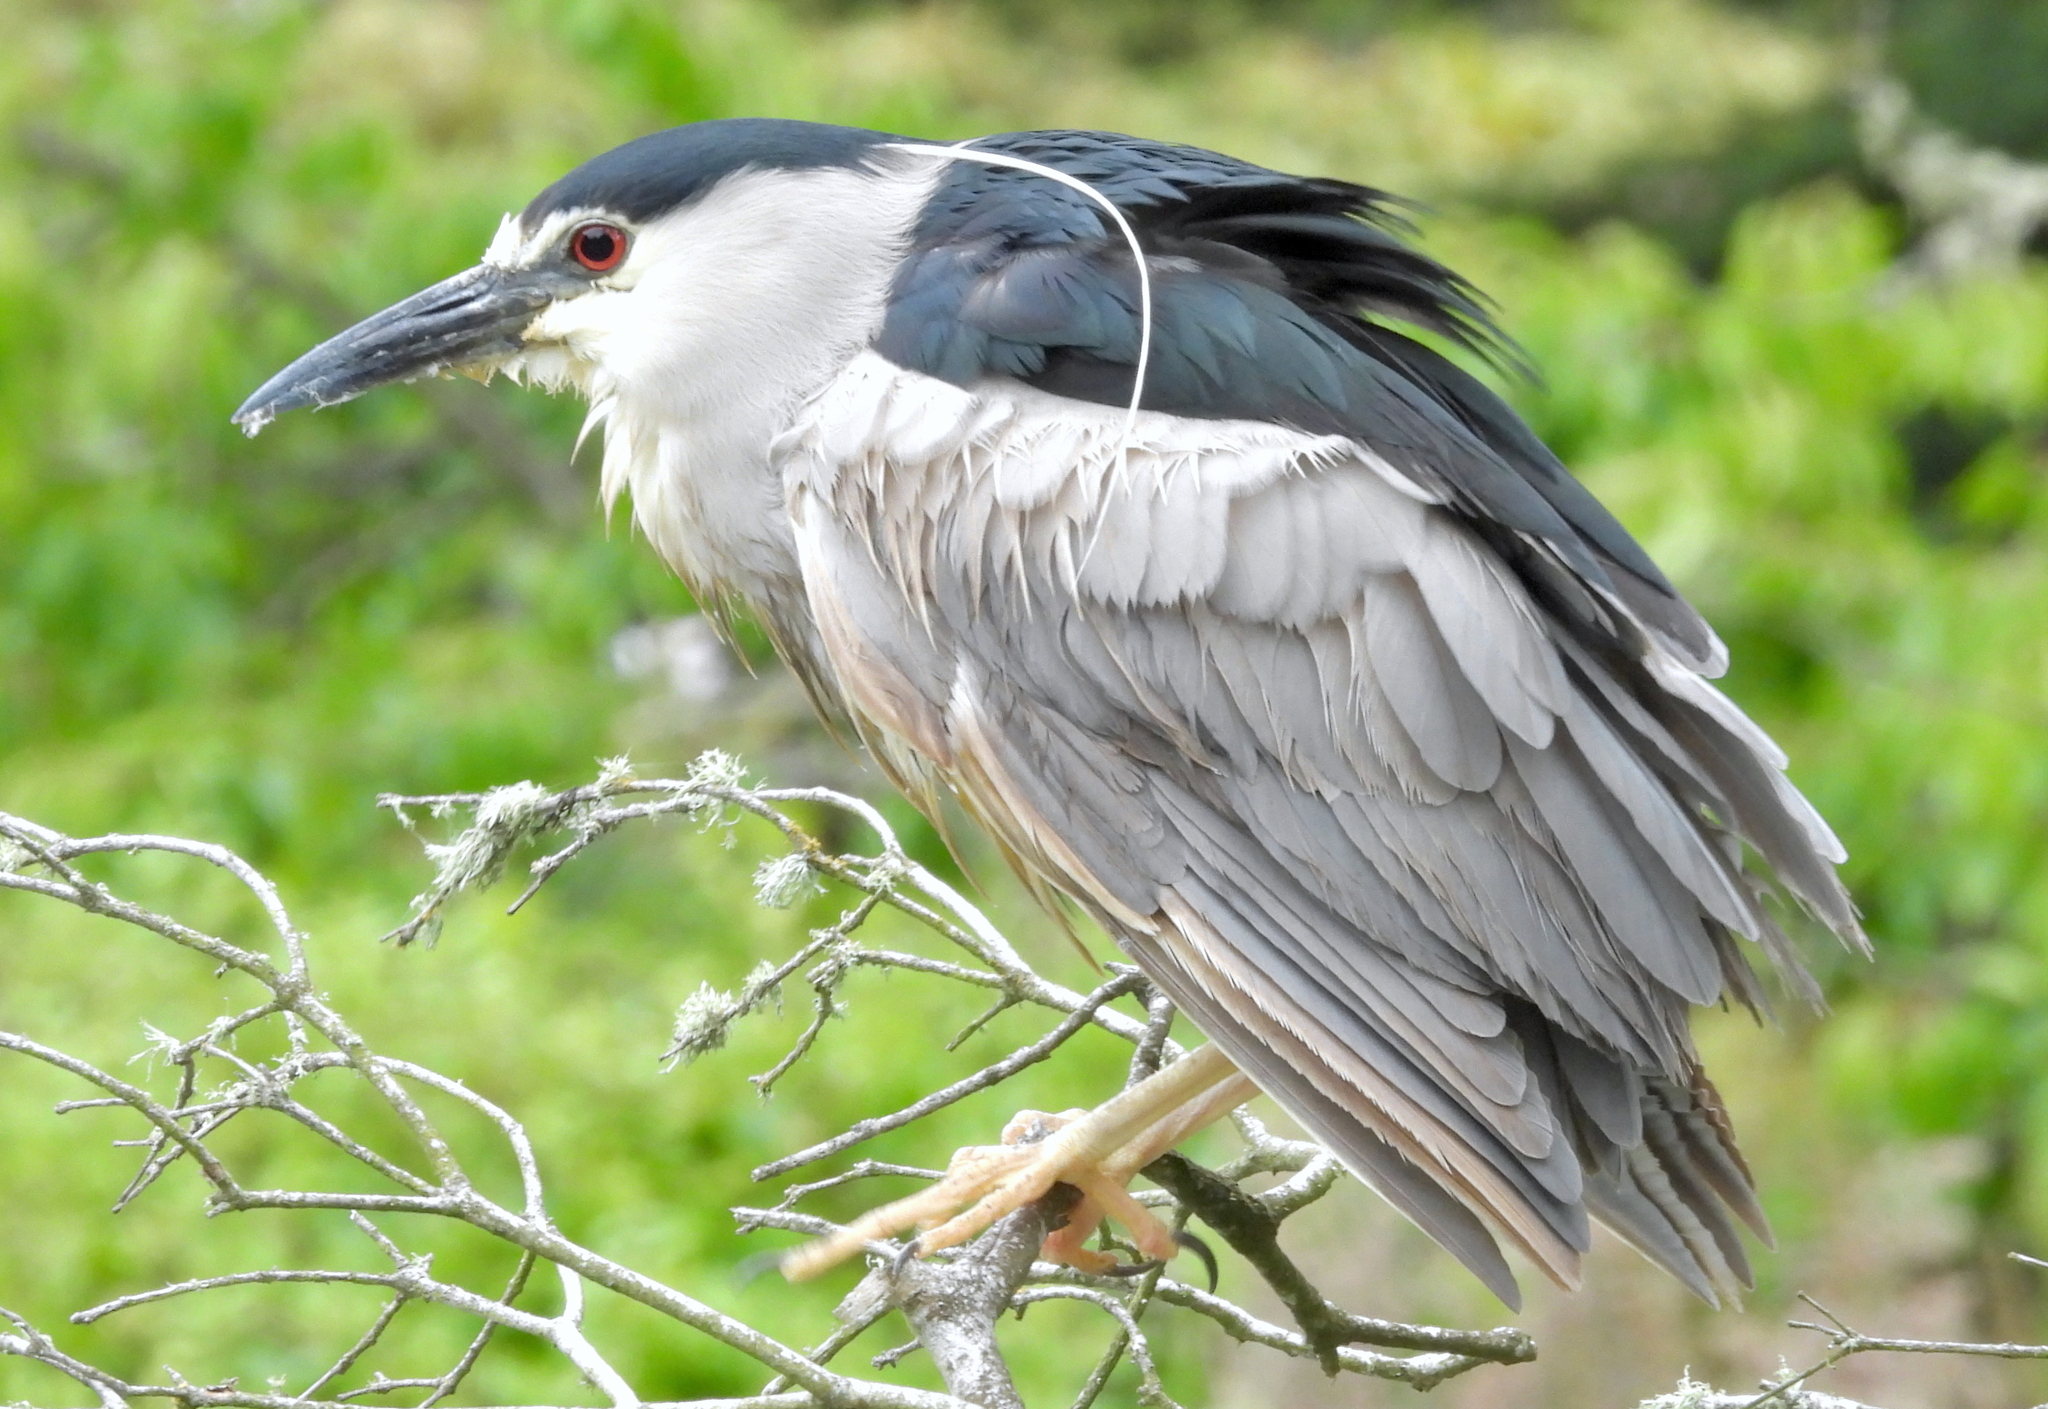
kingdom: Animalia
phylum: Chordata
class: Aves
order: Pelecaniformes
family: Ardeidae
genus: Nycticorax
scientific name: Nycticorax nycticorax
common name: Black-crowned night heron
